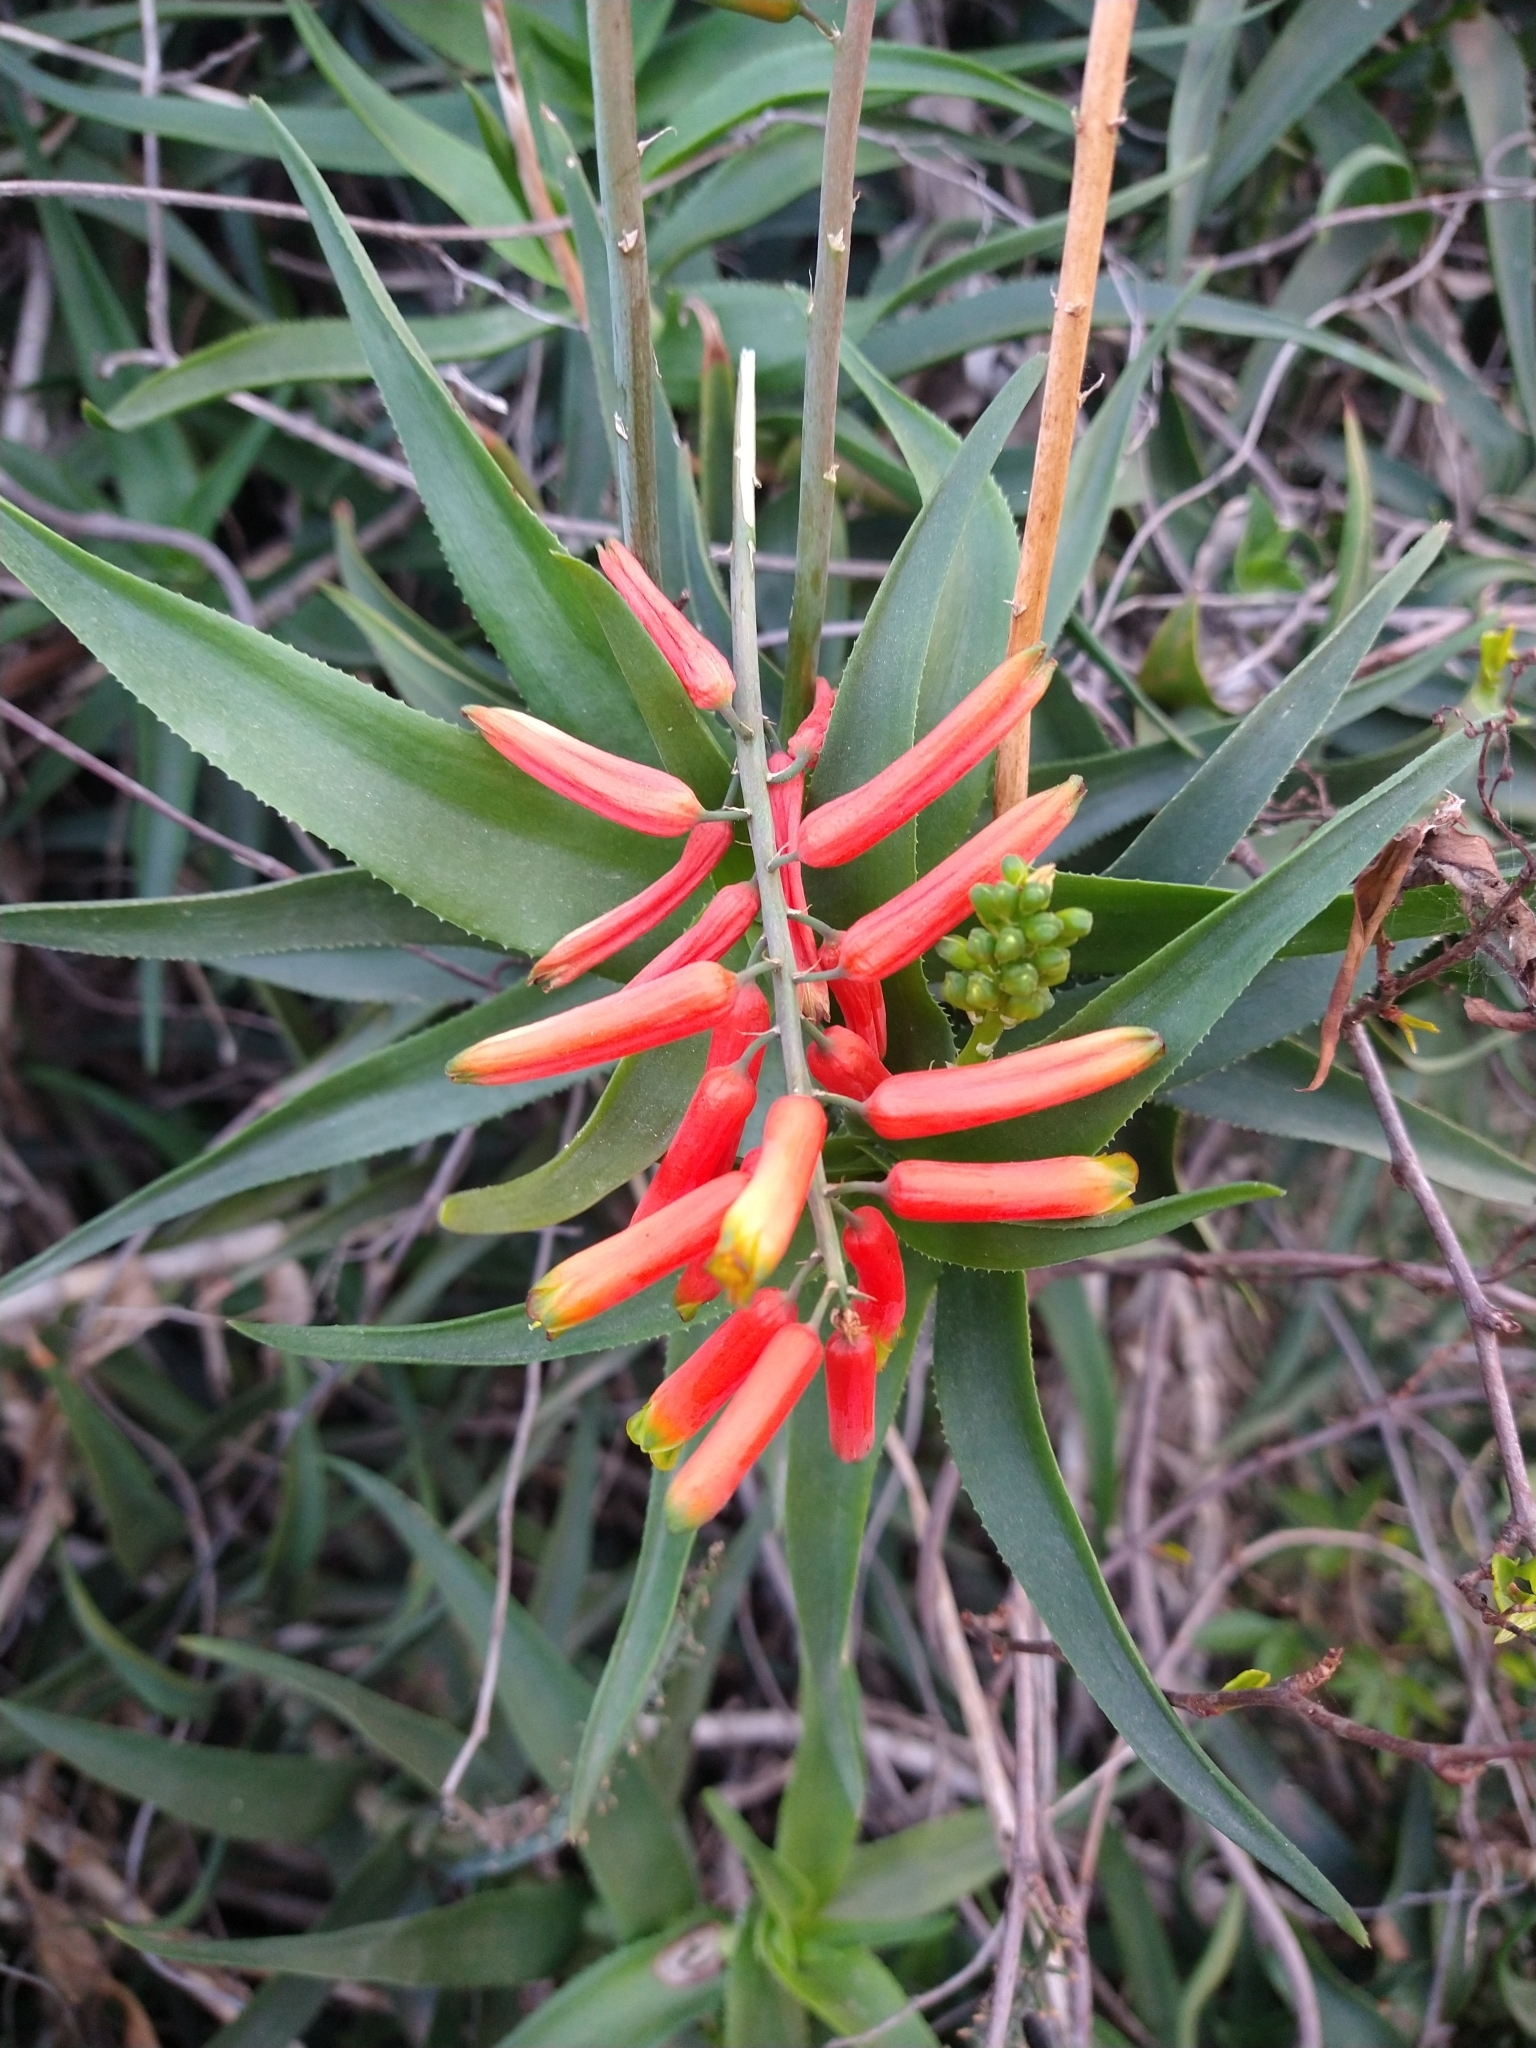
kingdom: Plantae
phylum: Tracheophyta
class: Liliopsida
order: Asparagales
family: Asphodelaceae
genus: Aloiampelos
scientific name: Aloiampelos ciliaris
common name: Climbing aloe
